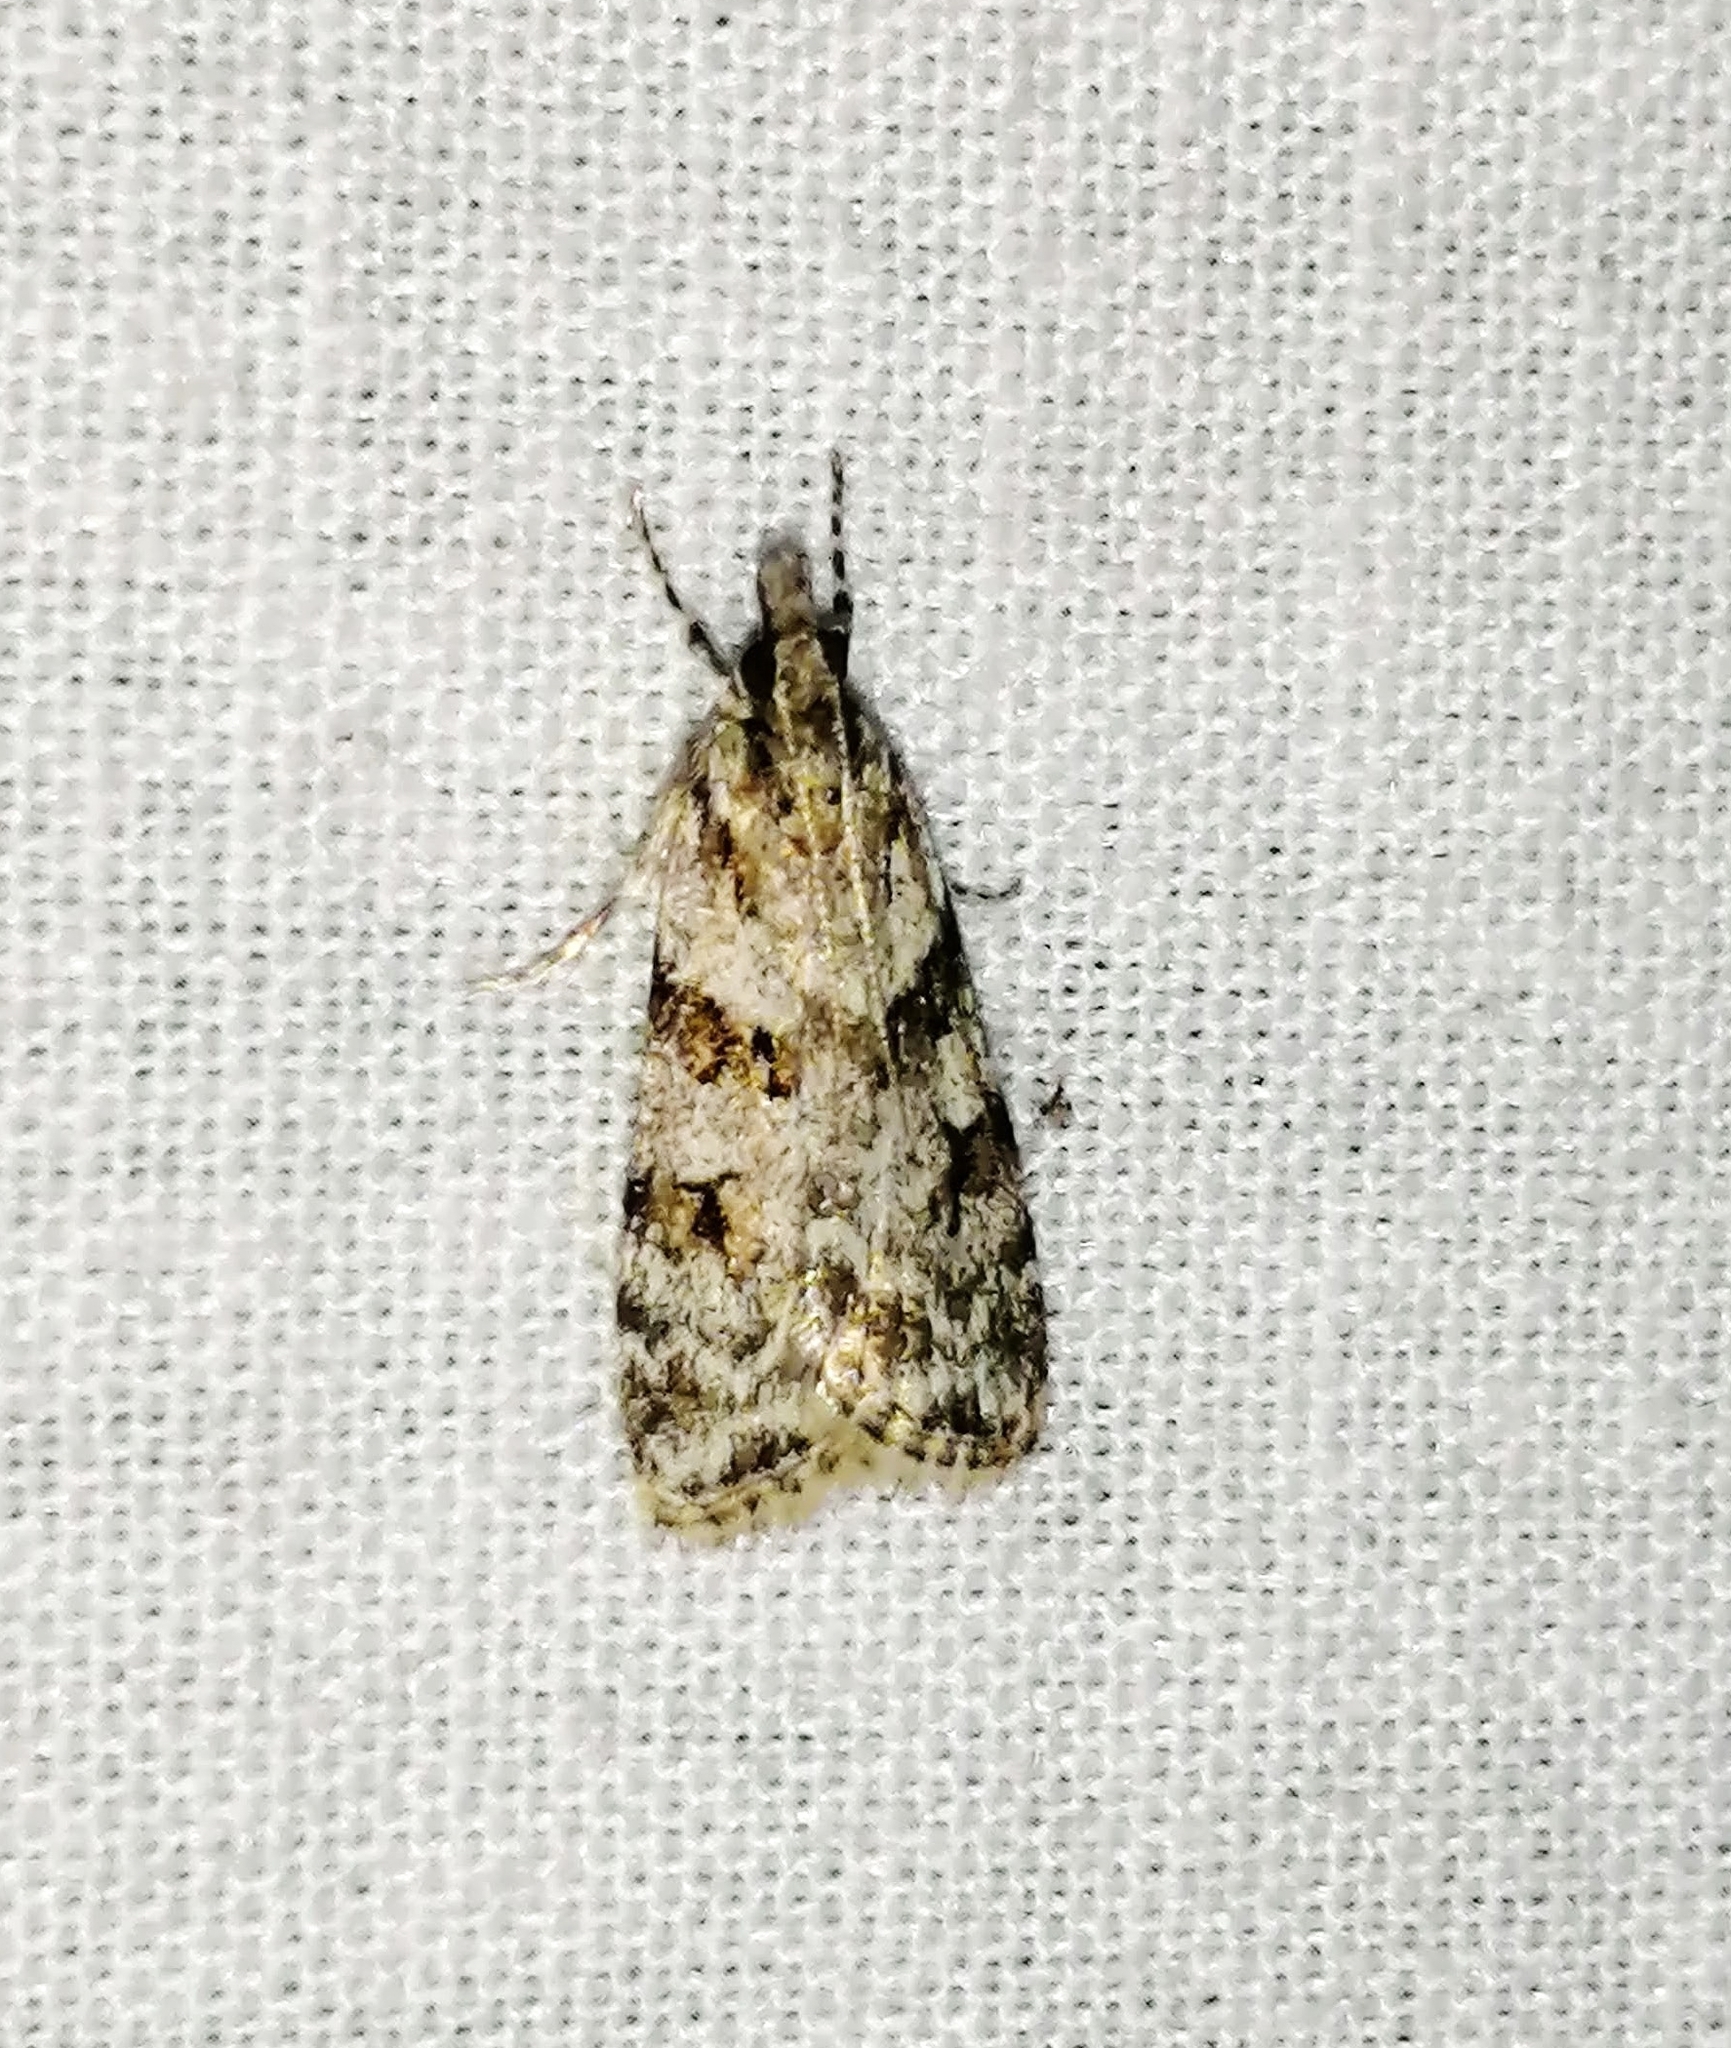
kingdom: Animalia
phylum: Arthropoda
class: Insecta
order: Lepidoptera
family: Crambidae
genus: Scoparia
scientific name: Scoparia biplagialis
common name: Double-striped scoparia moth
